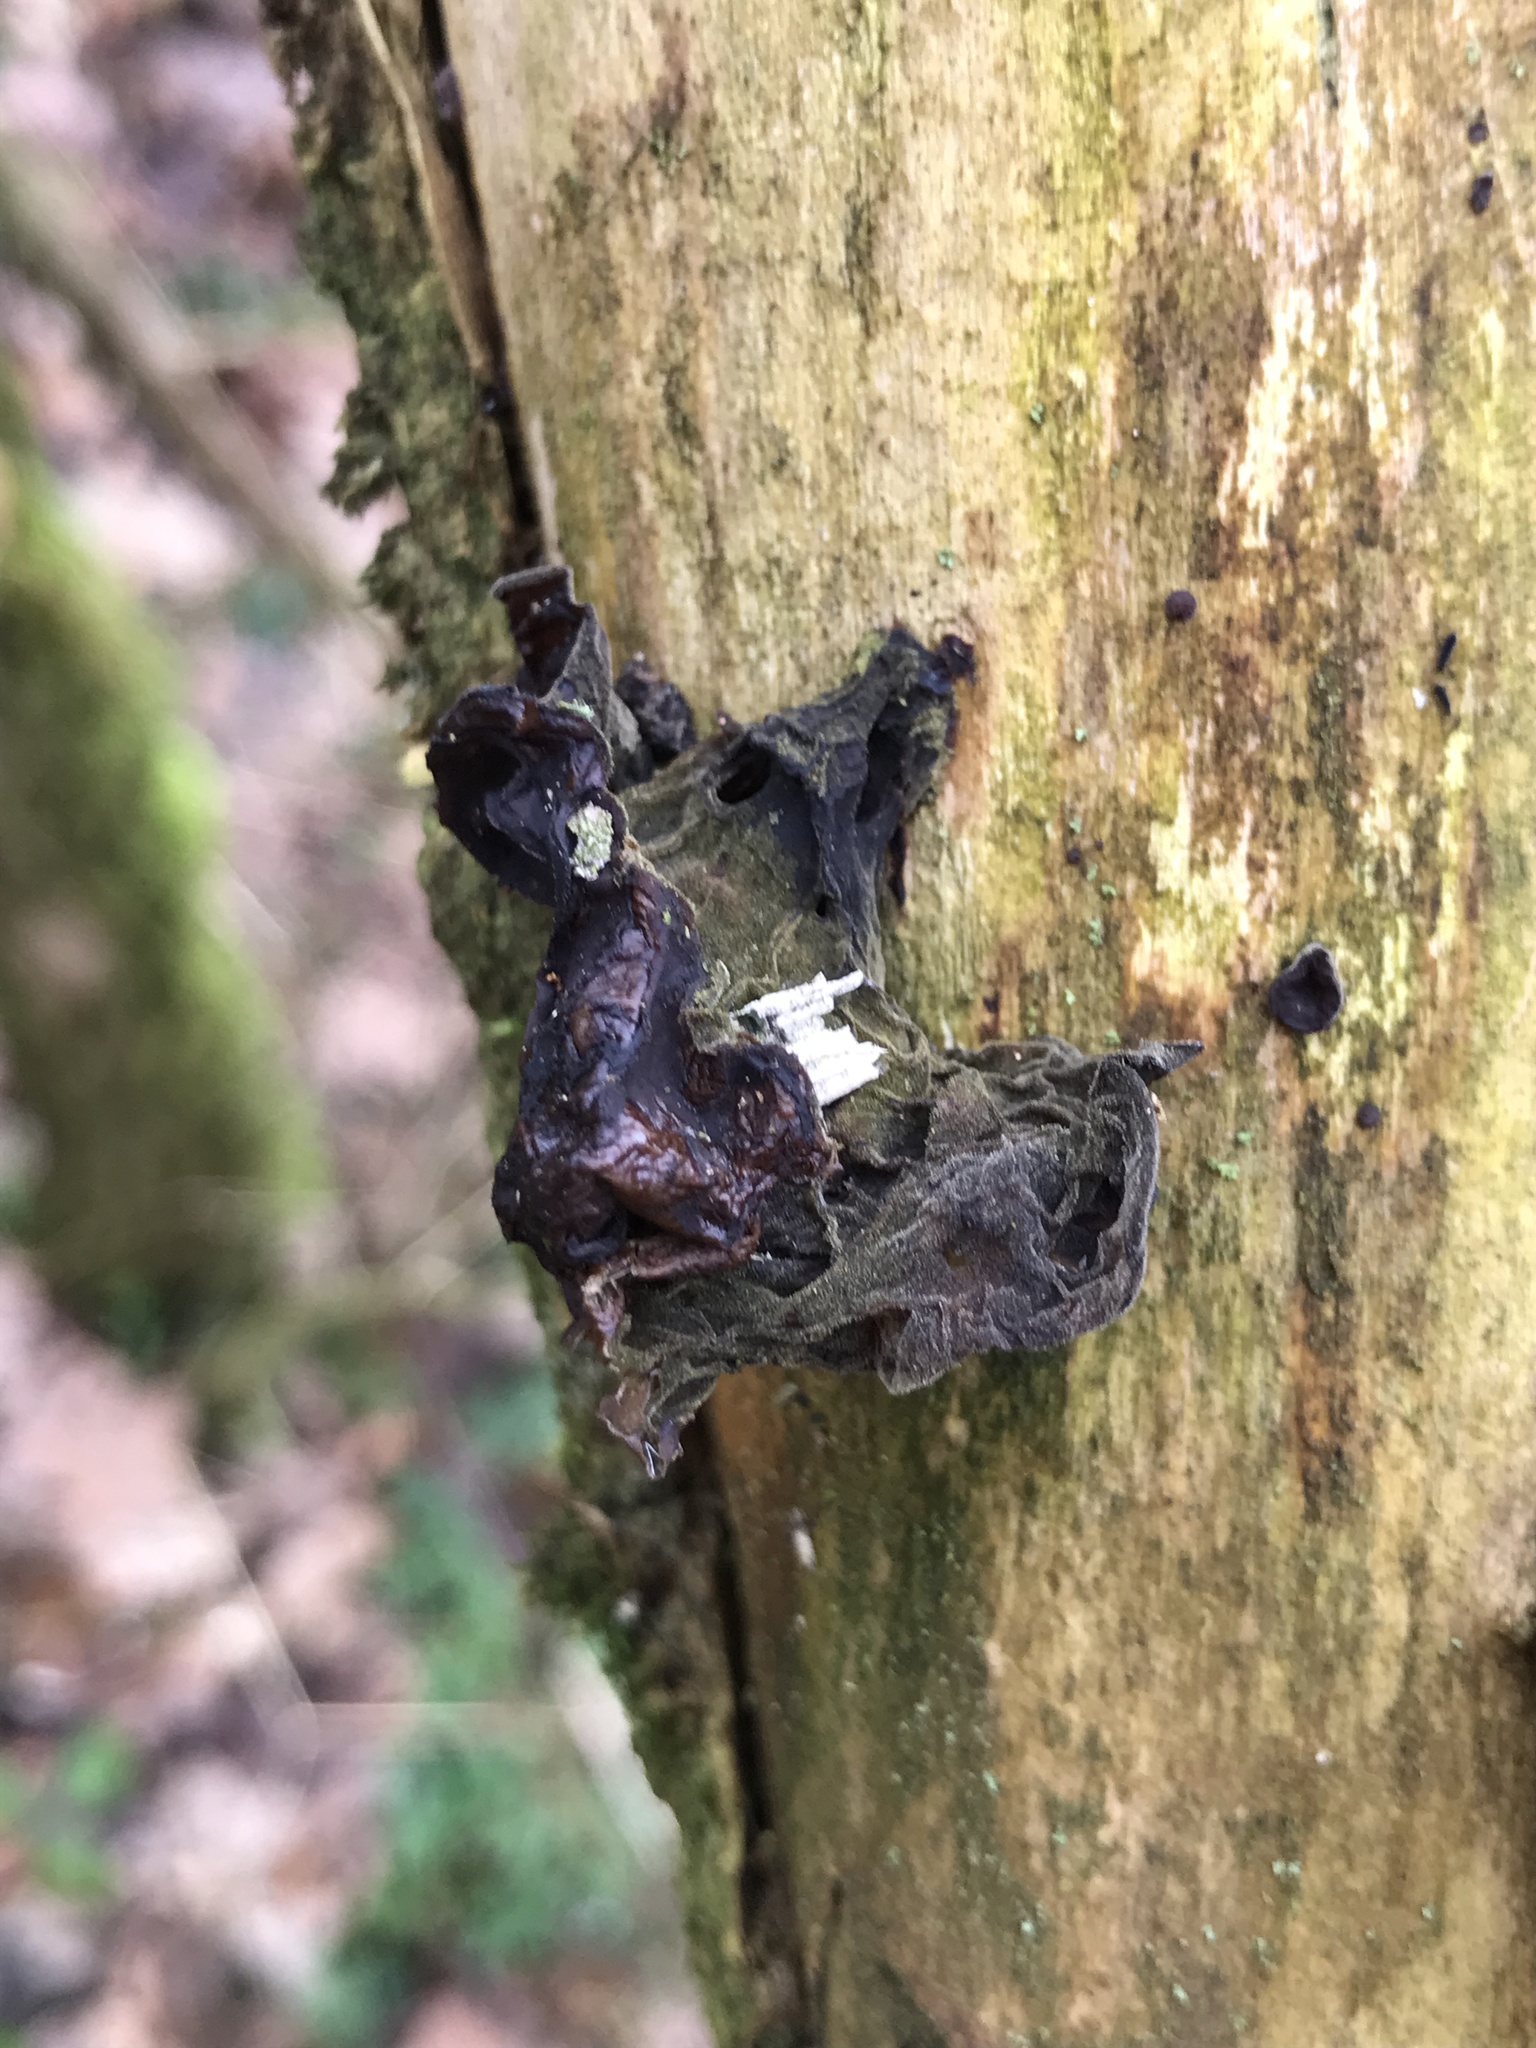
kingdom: Fungi
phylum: Basidiomycota
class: Agaricomycetes
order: Auriculariales
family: Auriculariaceae
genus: Auricularia
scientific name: Auricularia auricula-judae
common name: Jelly ear
